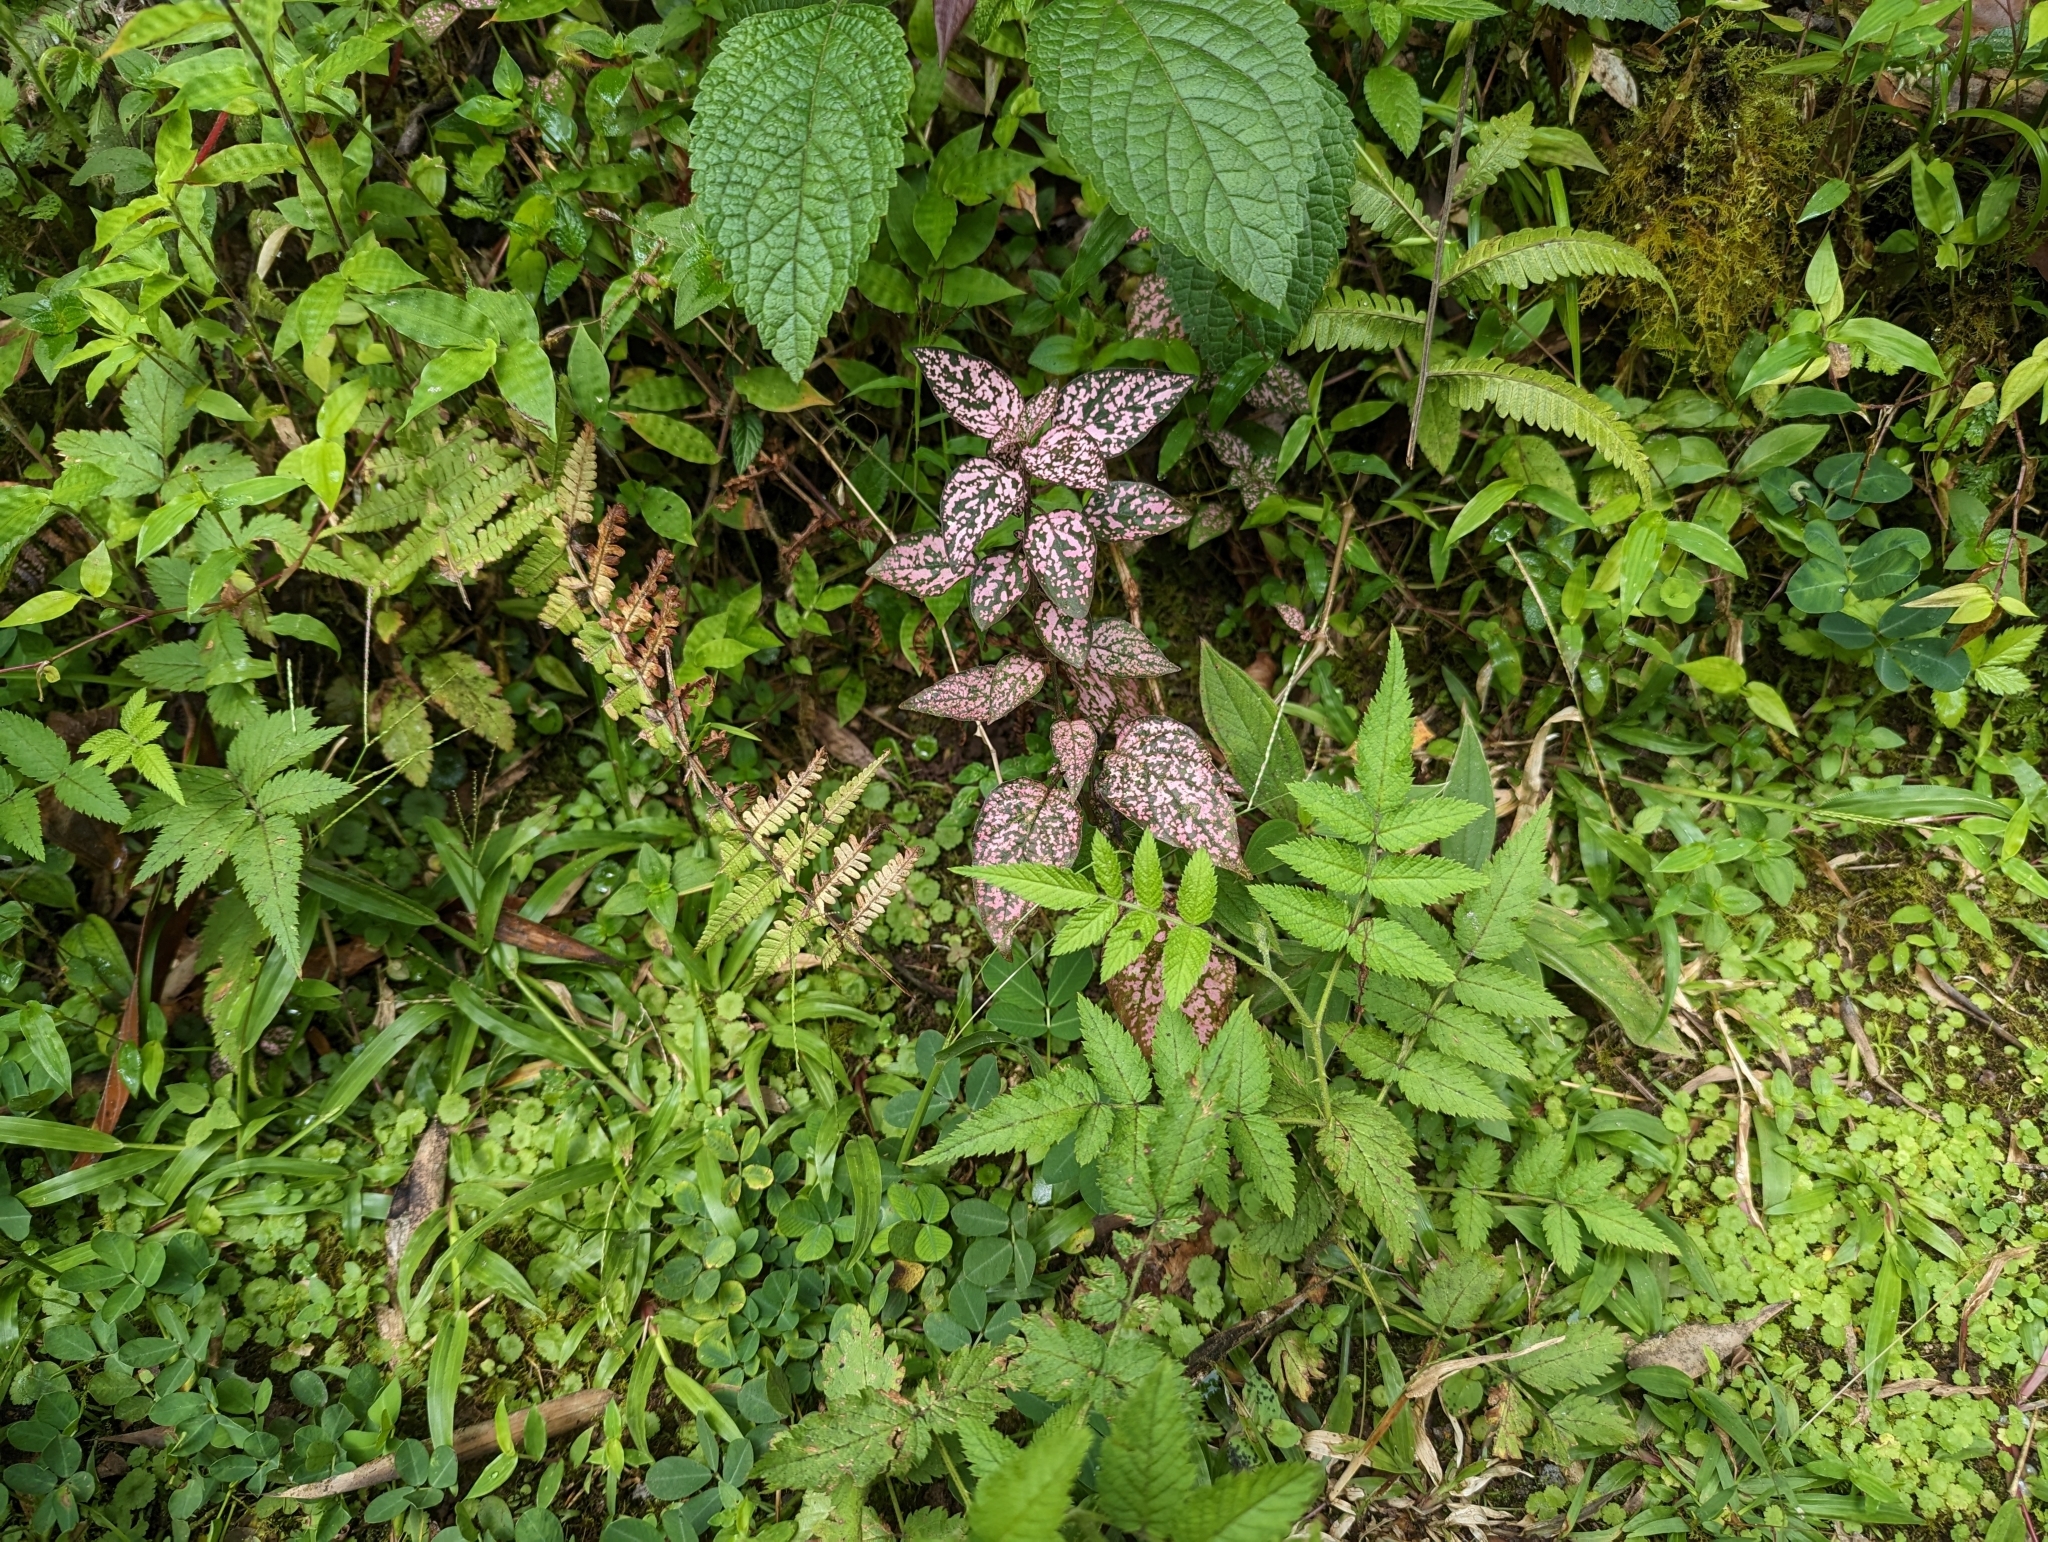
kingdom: Plantae
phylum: Tracheophyta
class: Magnoliopsida
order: Lamiales
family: Acanthaceae
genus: Hypoestes
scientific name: Hypoestes phyllostachya
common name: Polkadot-plant
